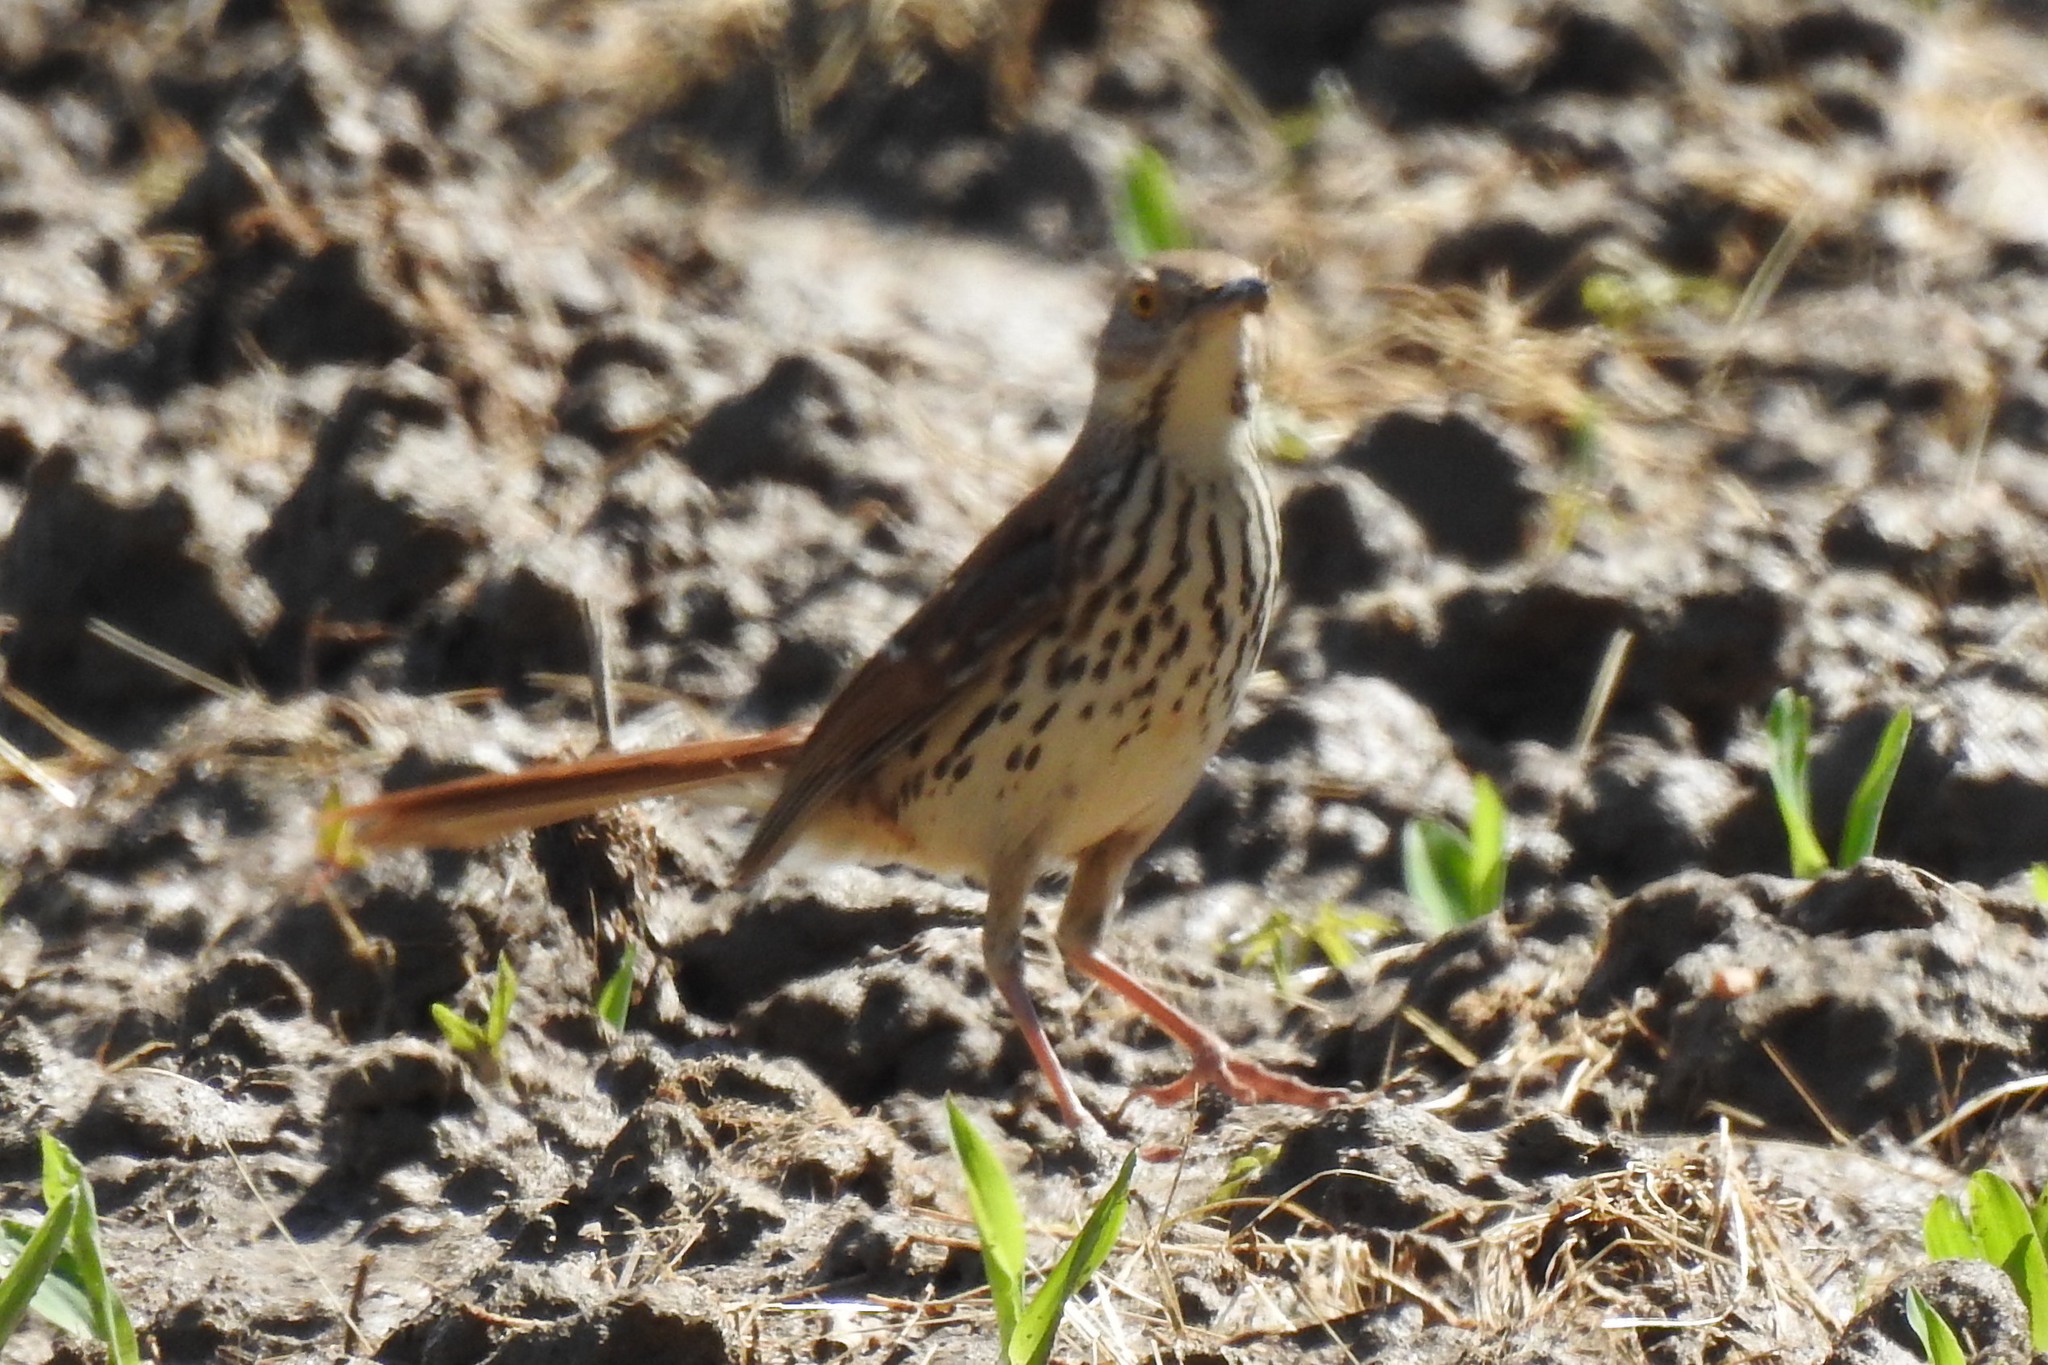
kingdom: Animalia
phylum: Chordata
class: Aves
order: Passeriformes
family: Mimidae
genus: Toxostoma
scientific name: Toxostoma rufum
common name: Brown thrasher
